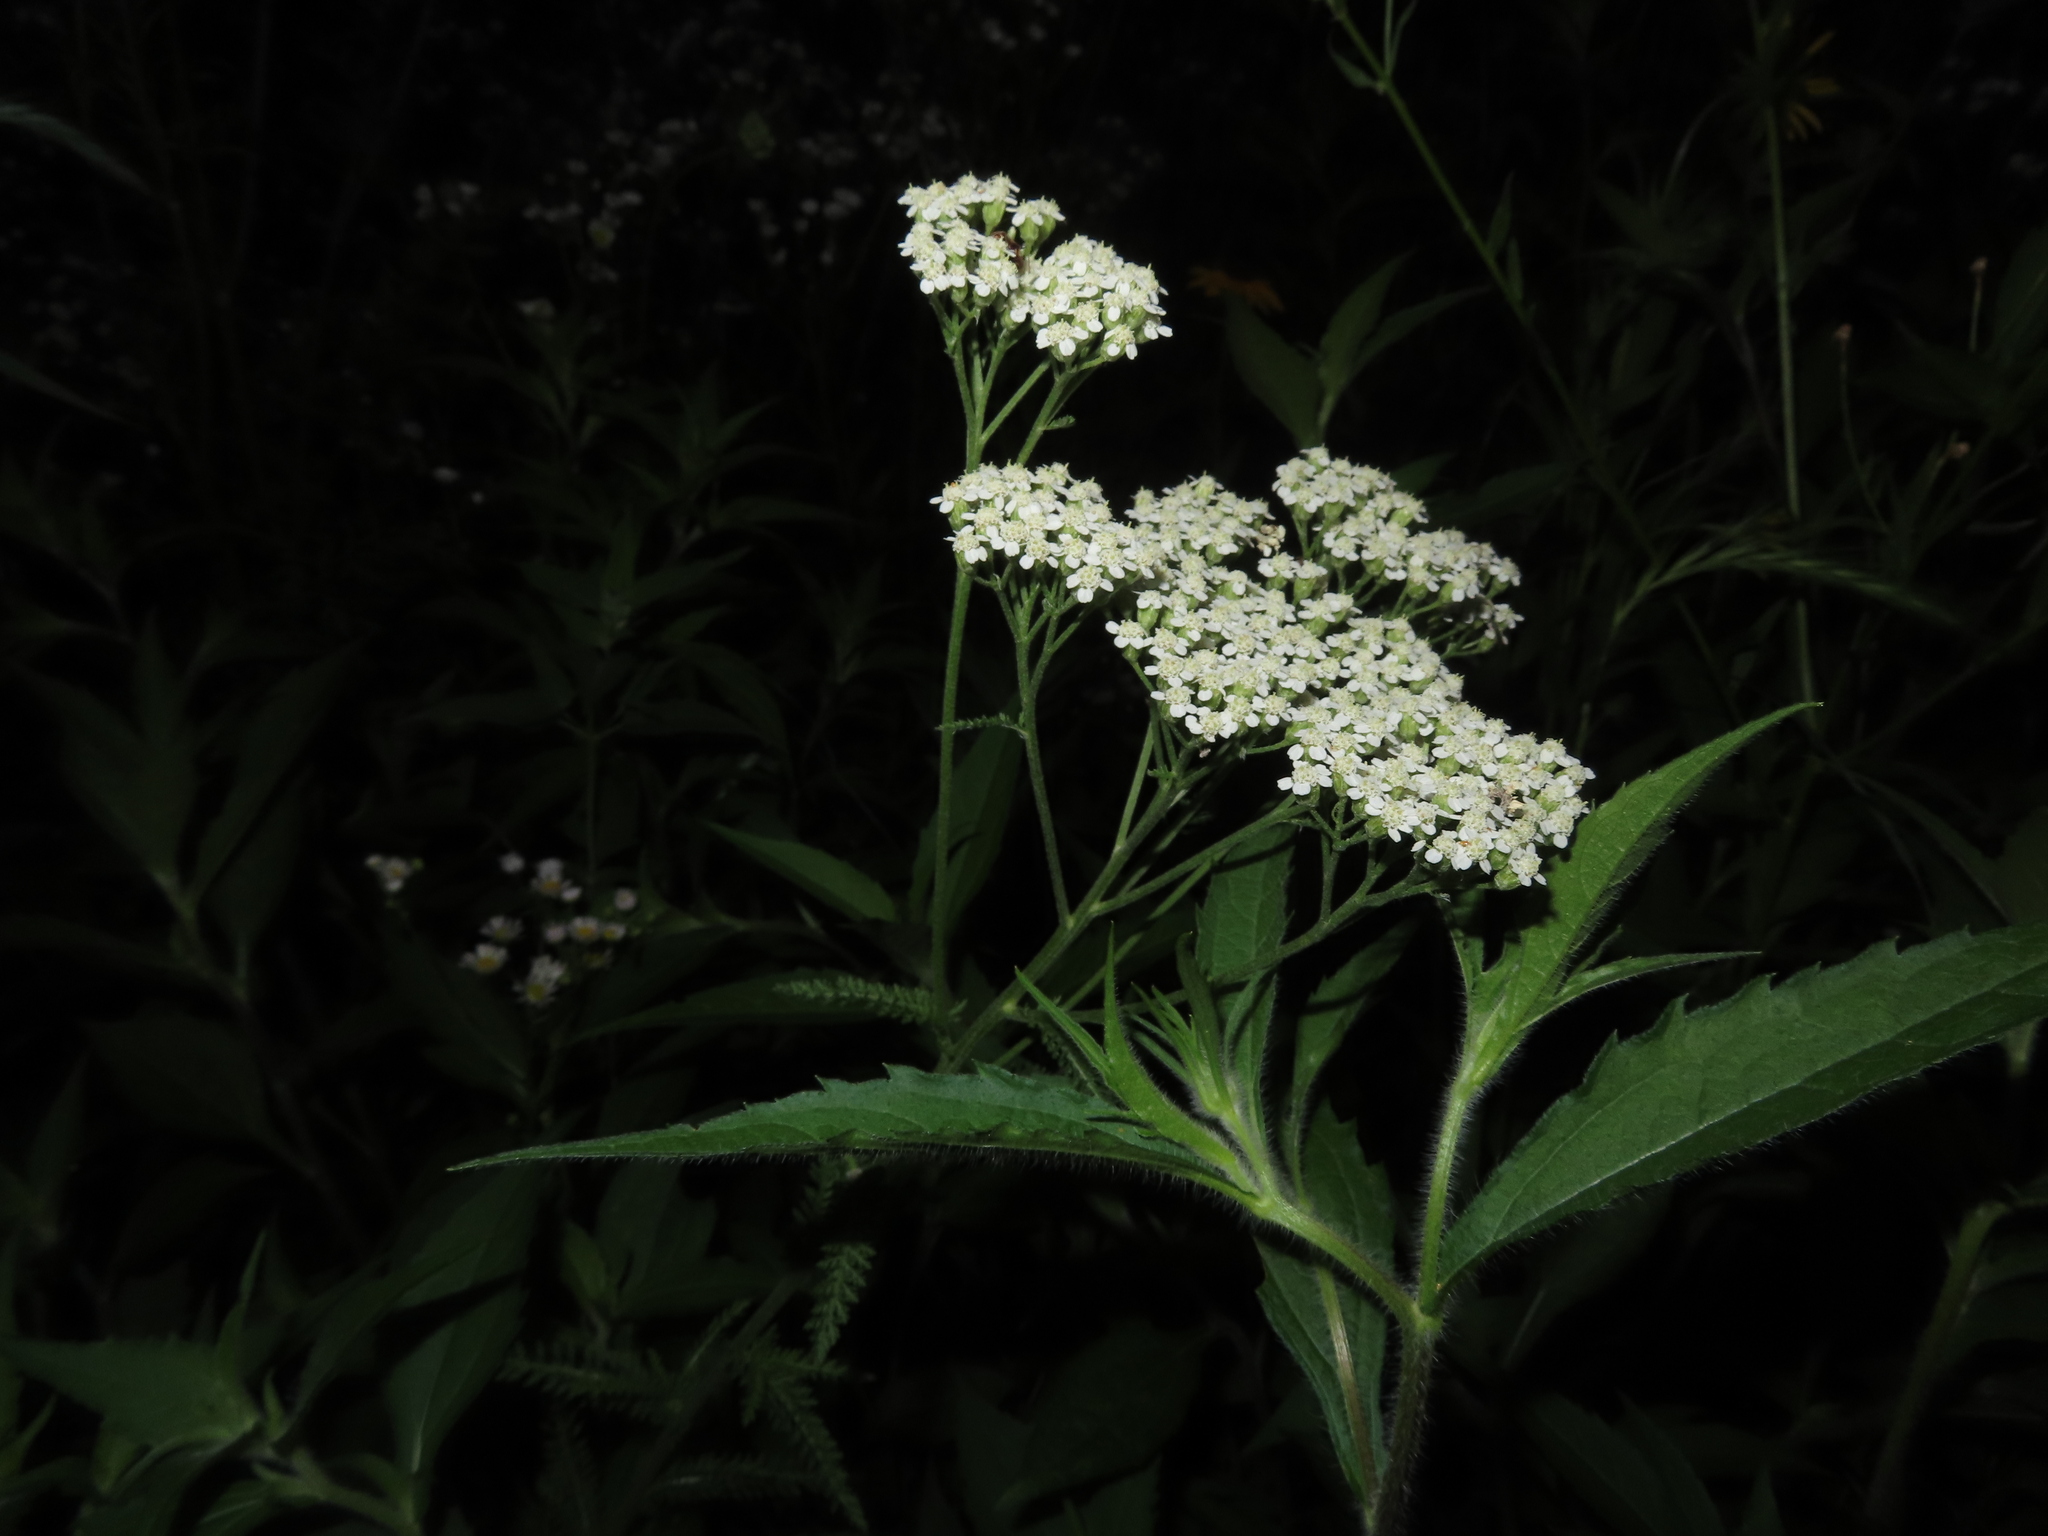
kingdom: Plantae
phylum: Tracheophyta
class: Magnoliopsida
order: Asterales
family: Asteraceae
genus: Achillea
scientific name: Achillea millefolium
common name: Yarrow
